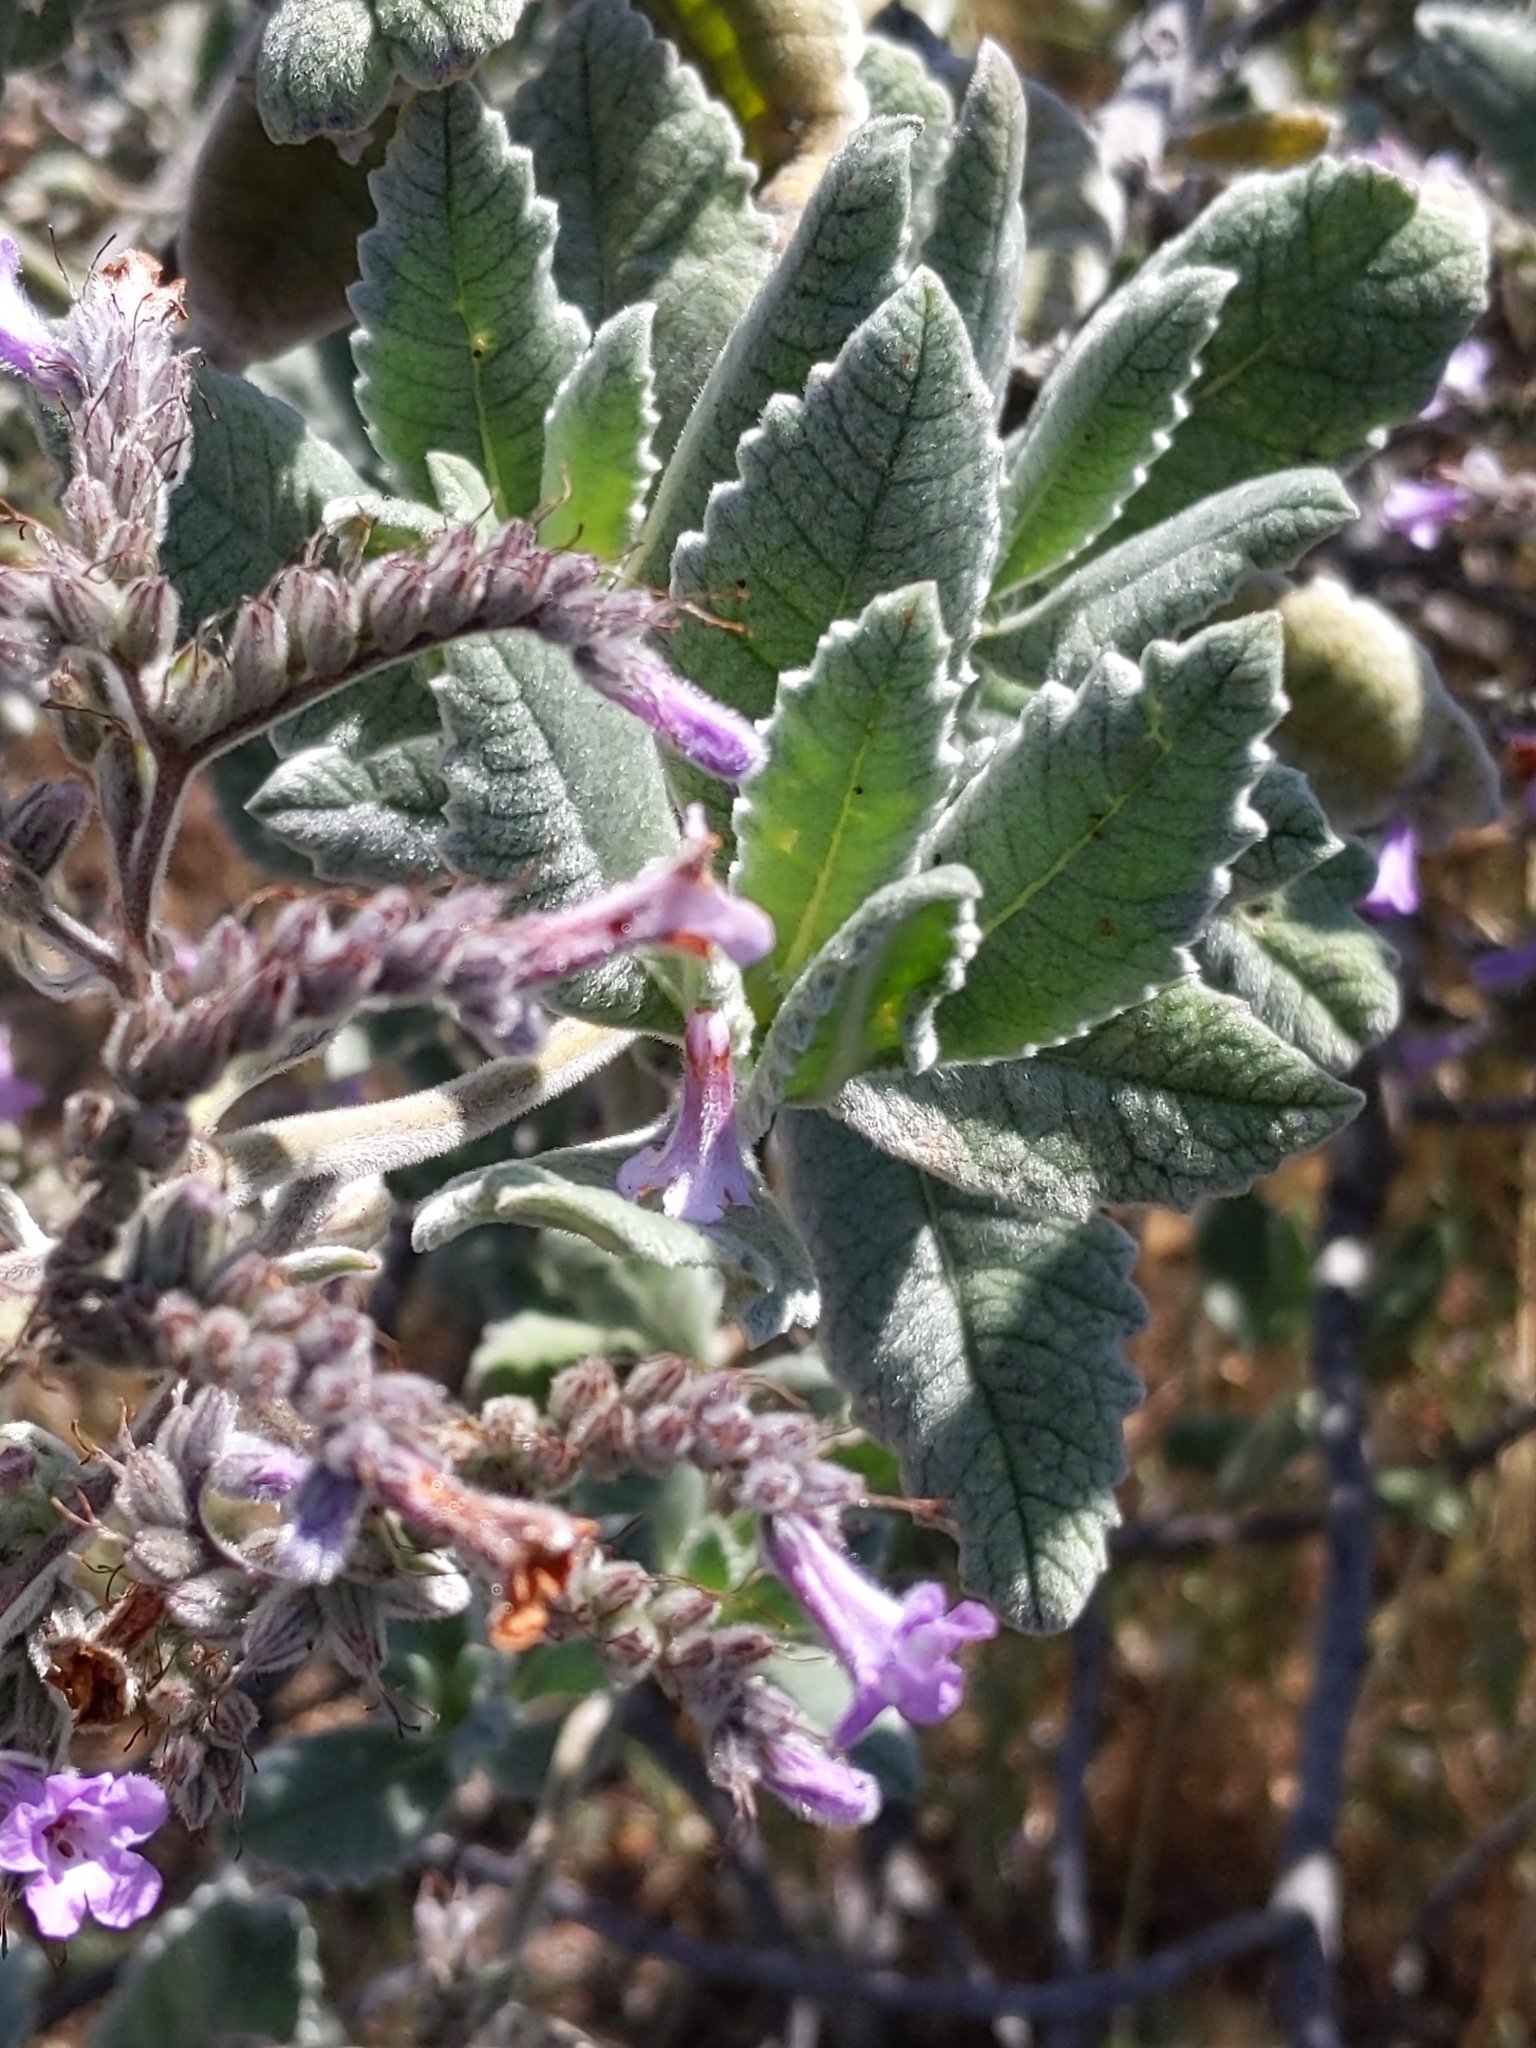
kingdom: Plantae
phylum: Tracheophyta
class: Magnoliopsida
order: Boraginales
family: Namaceae
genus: Eriodictyon
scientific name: Eriodictyon crassifolium
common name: Thick-leaf yerba-santa
